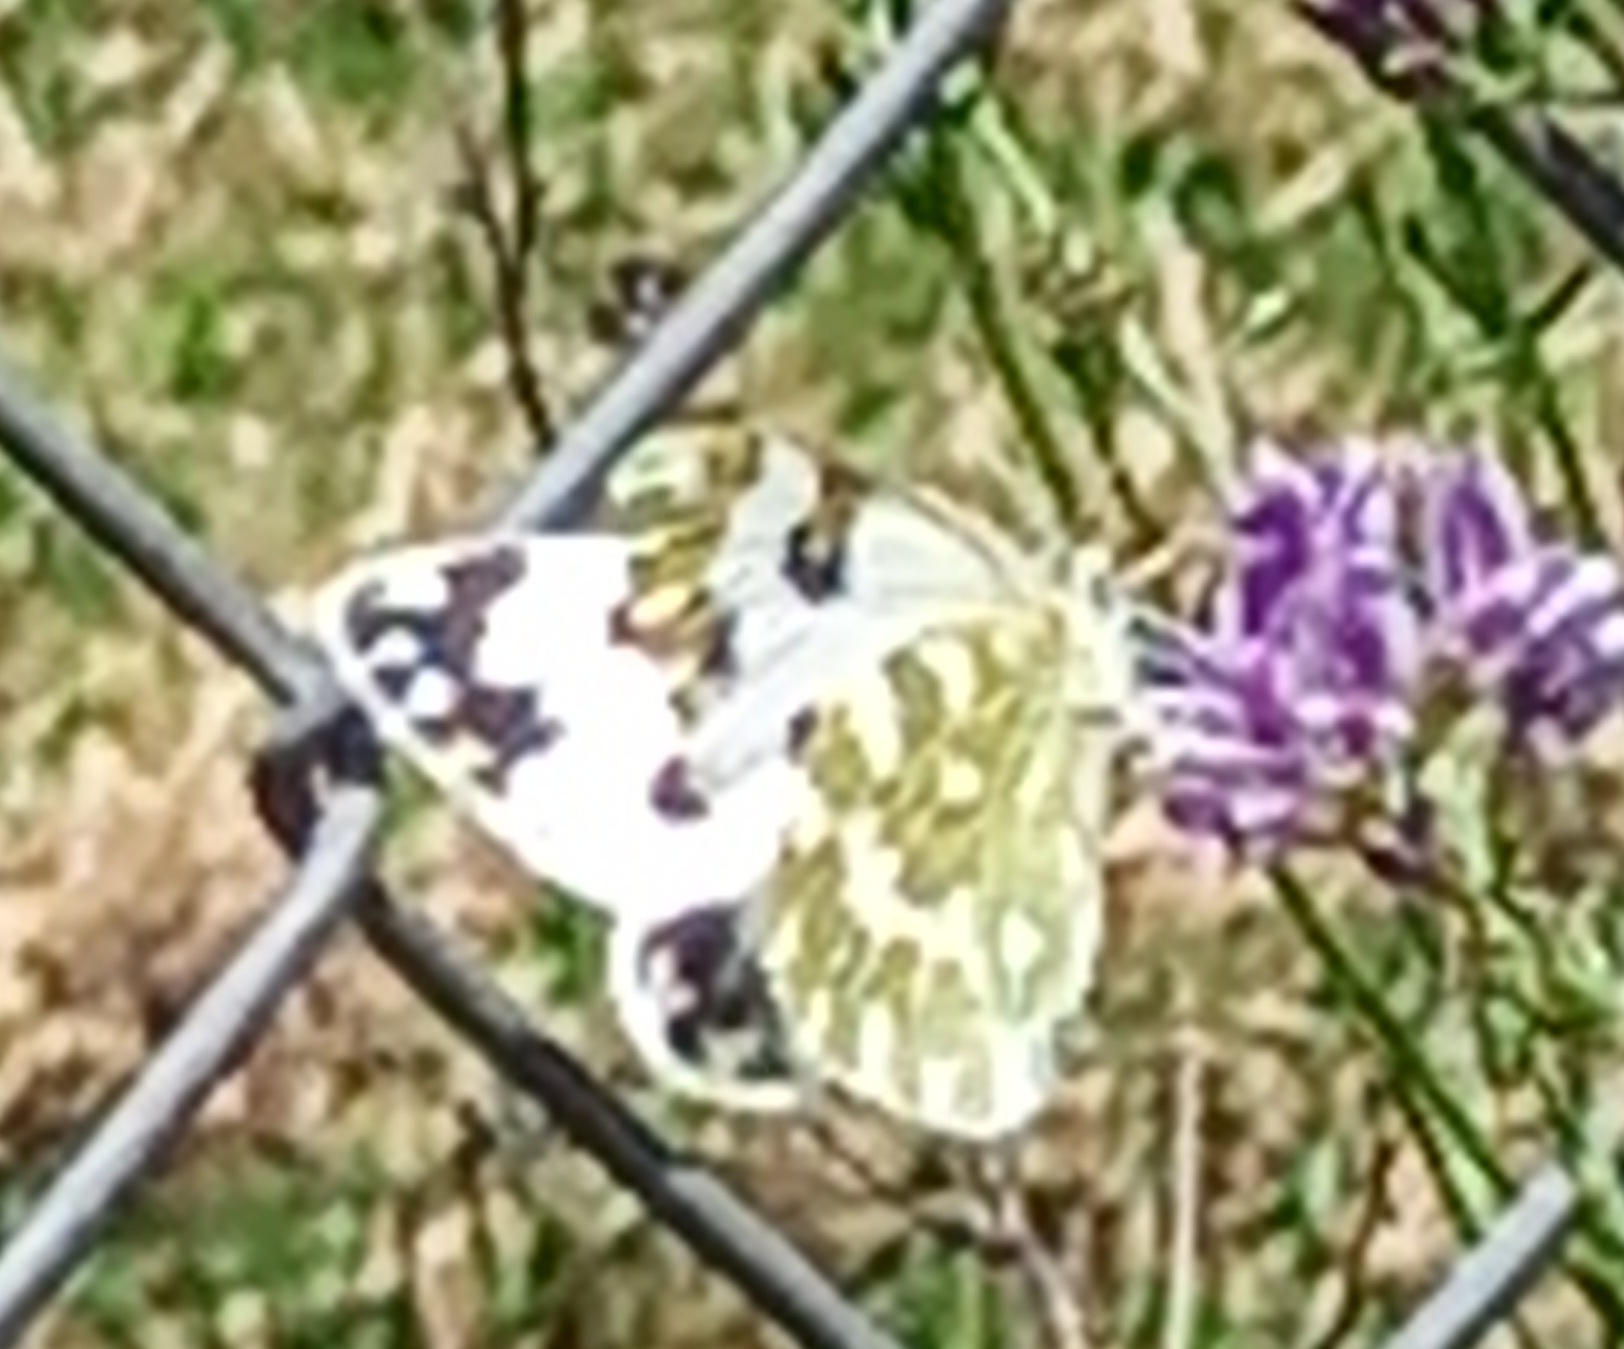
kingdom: Animalia
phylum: Arthropoda
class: Insecta
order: Lepidoptera
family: Pieridae
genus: Pontia
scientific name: Pontia daplidice
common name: Bath white
